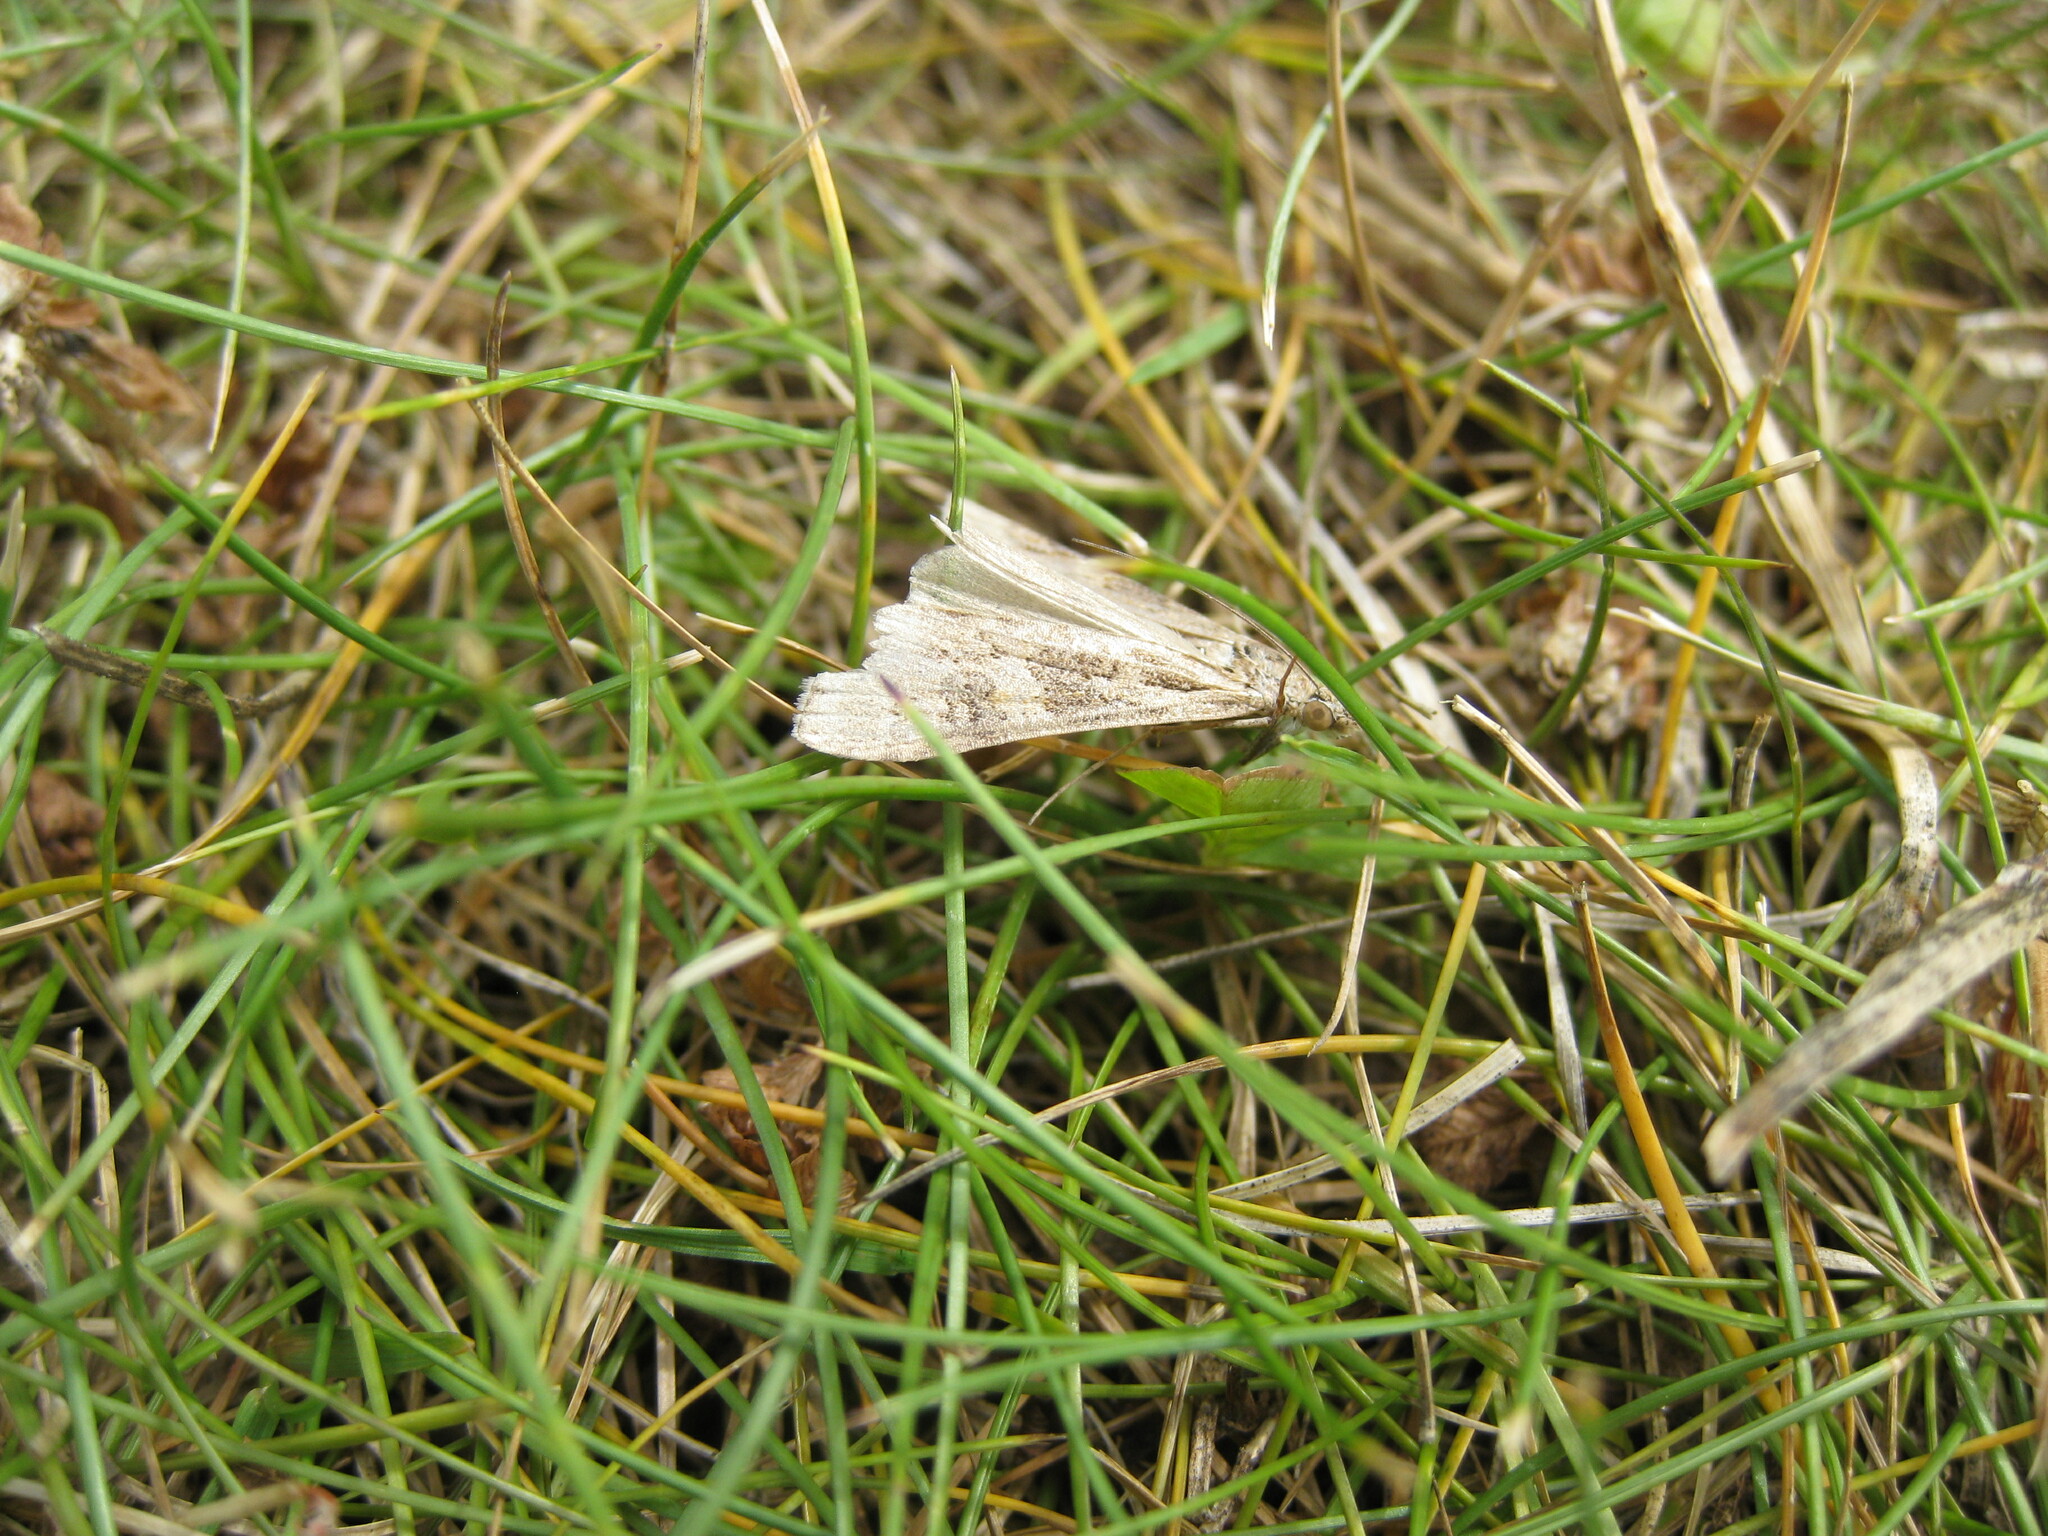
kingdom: Animalia
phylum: Arthropoda
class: Insecta
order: Lepidoptera
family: Crambidae
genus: Nomophila
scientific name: Nomophila noctuella
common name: Rush veneer
